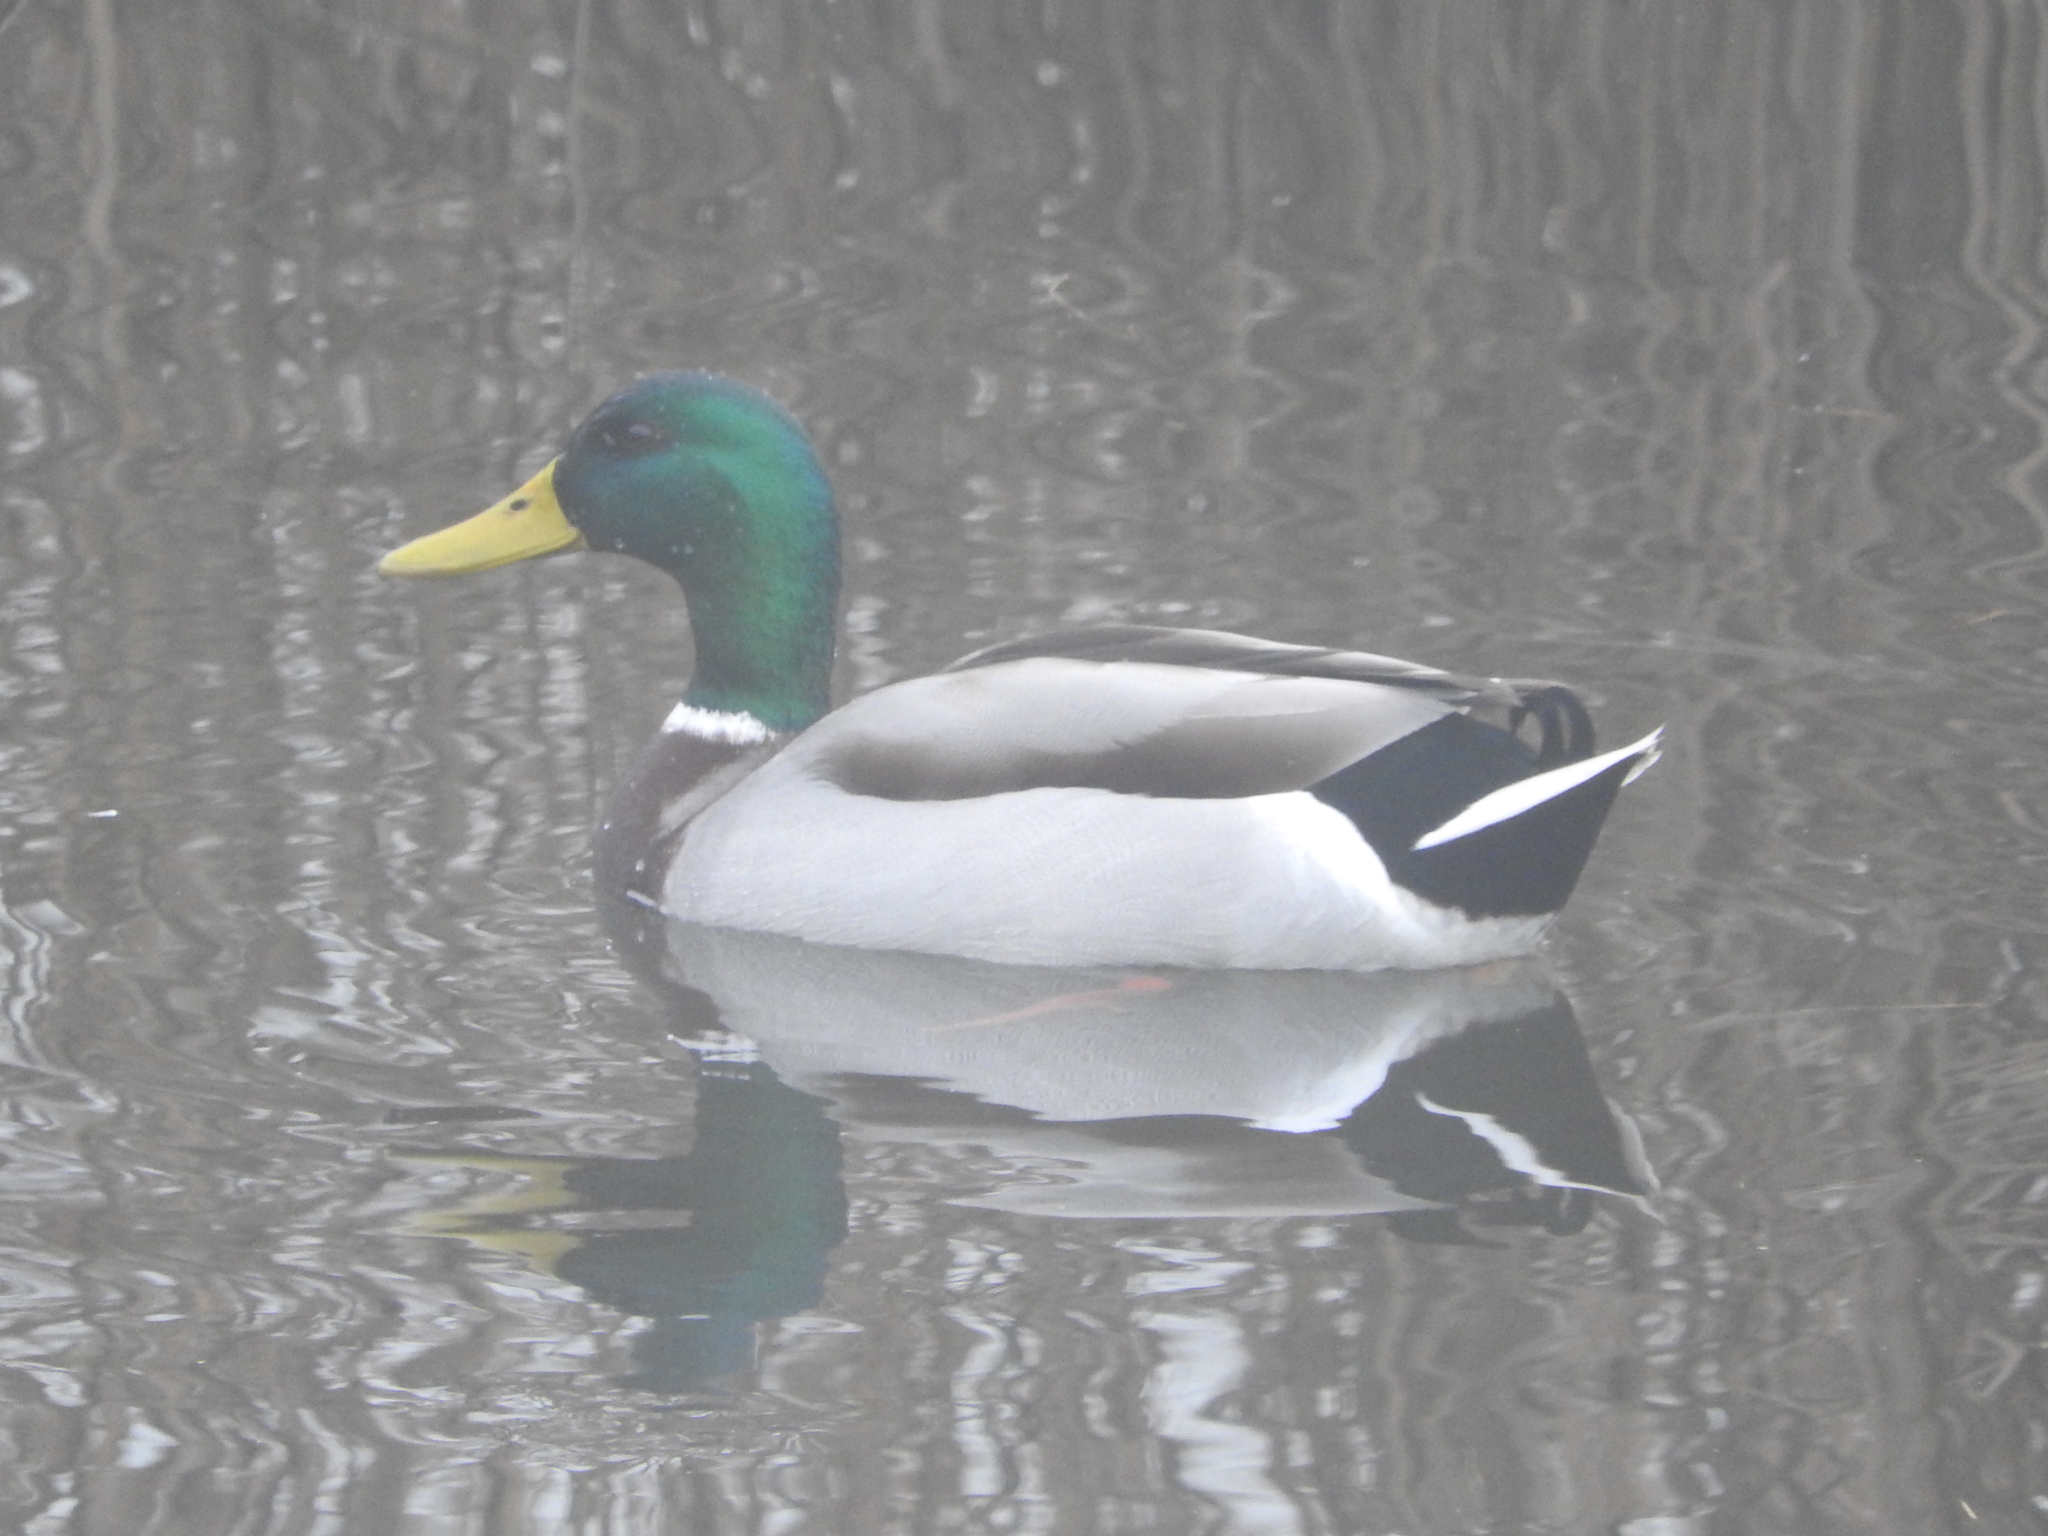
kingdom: Animalia
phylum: Chordata
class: Aves
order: Anseriformes
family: Anatidae
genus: Anas
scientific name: Anas platyrhynchos
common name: Mallard
